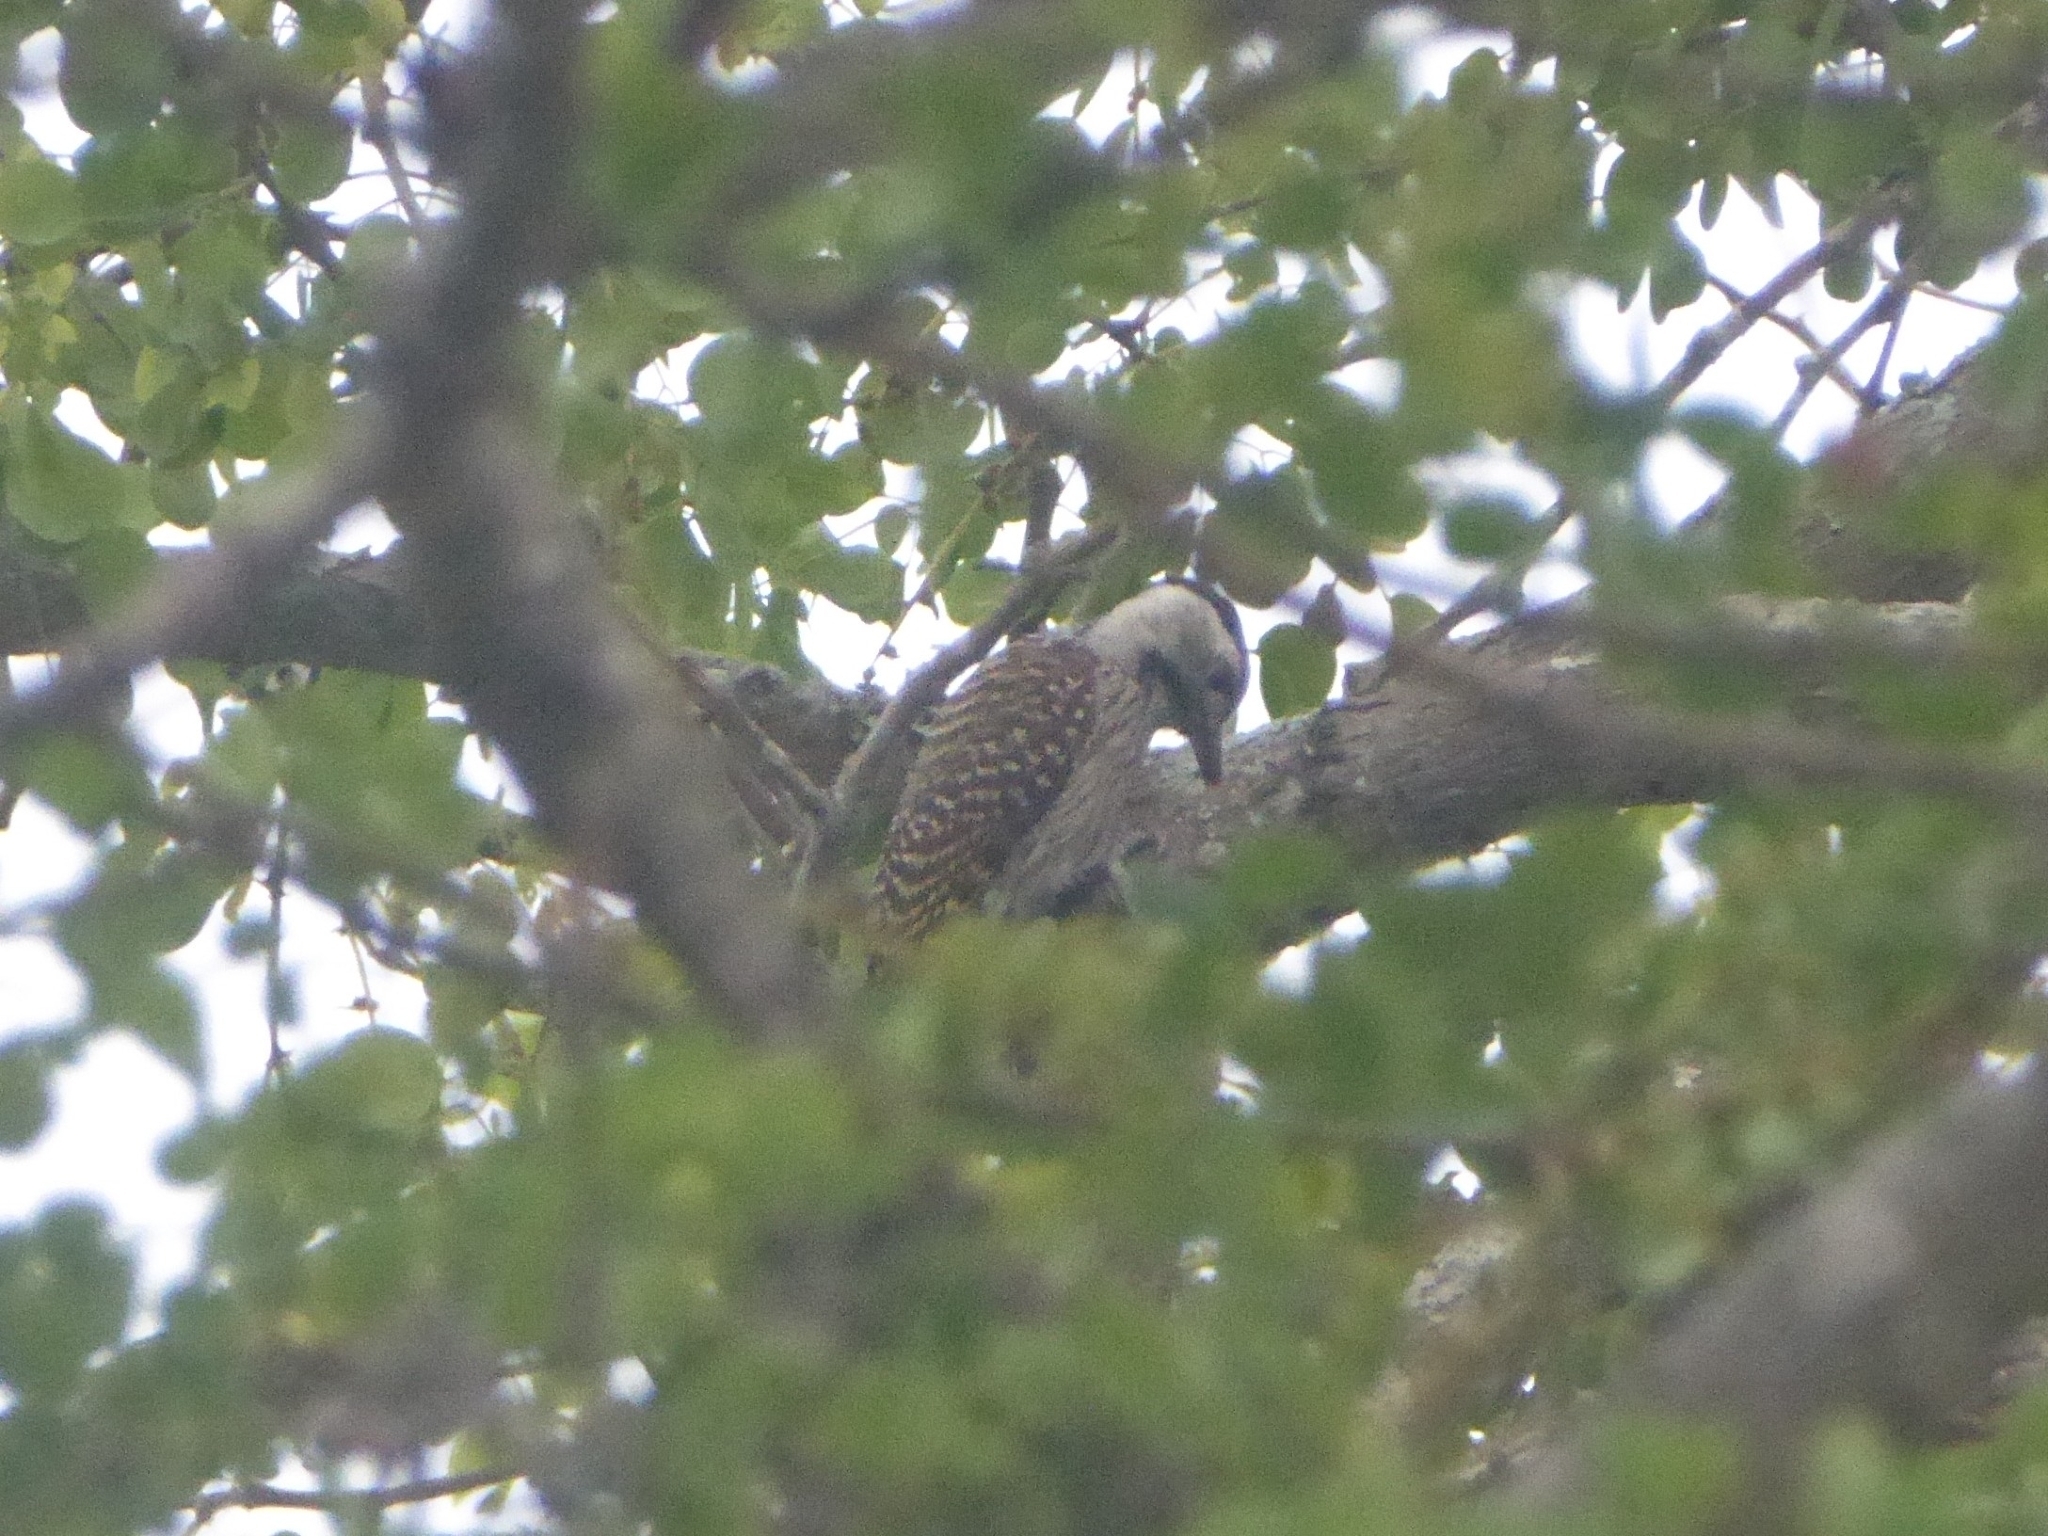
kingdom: Animalia
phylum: Chordata
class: Aves
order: Piciformes
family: Picidae
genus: Dendropicos
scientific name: Dendropicos fuscescens
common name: Cardinal woodpecker
